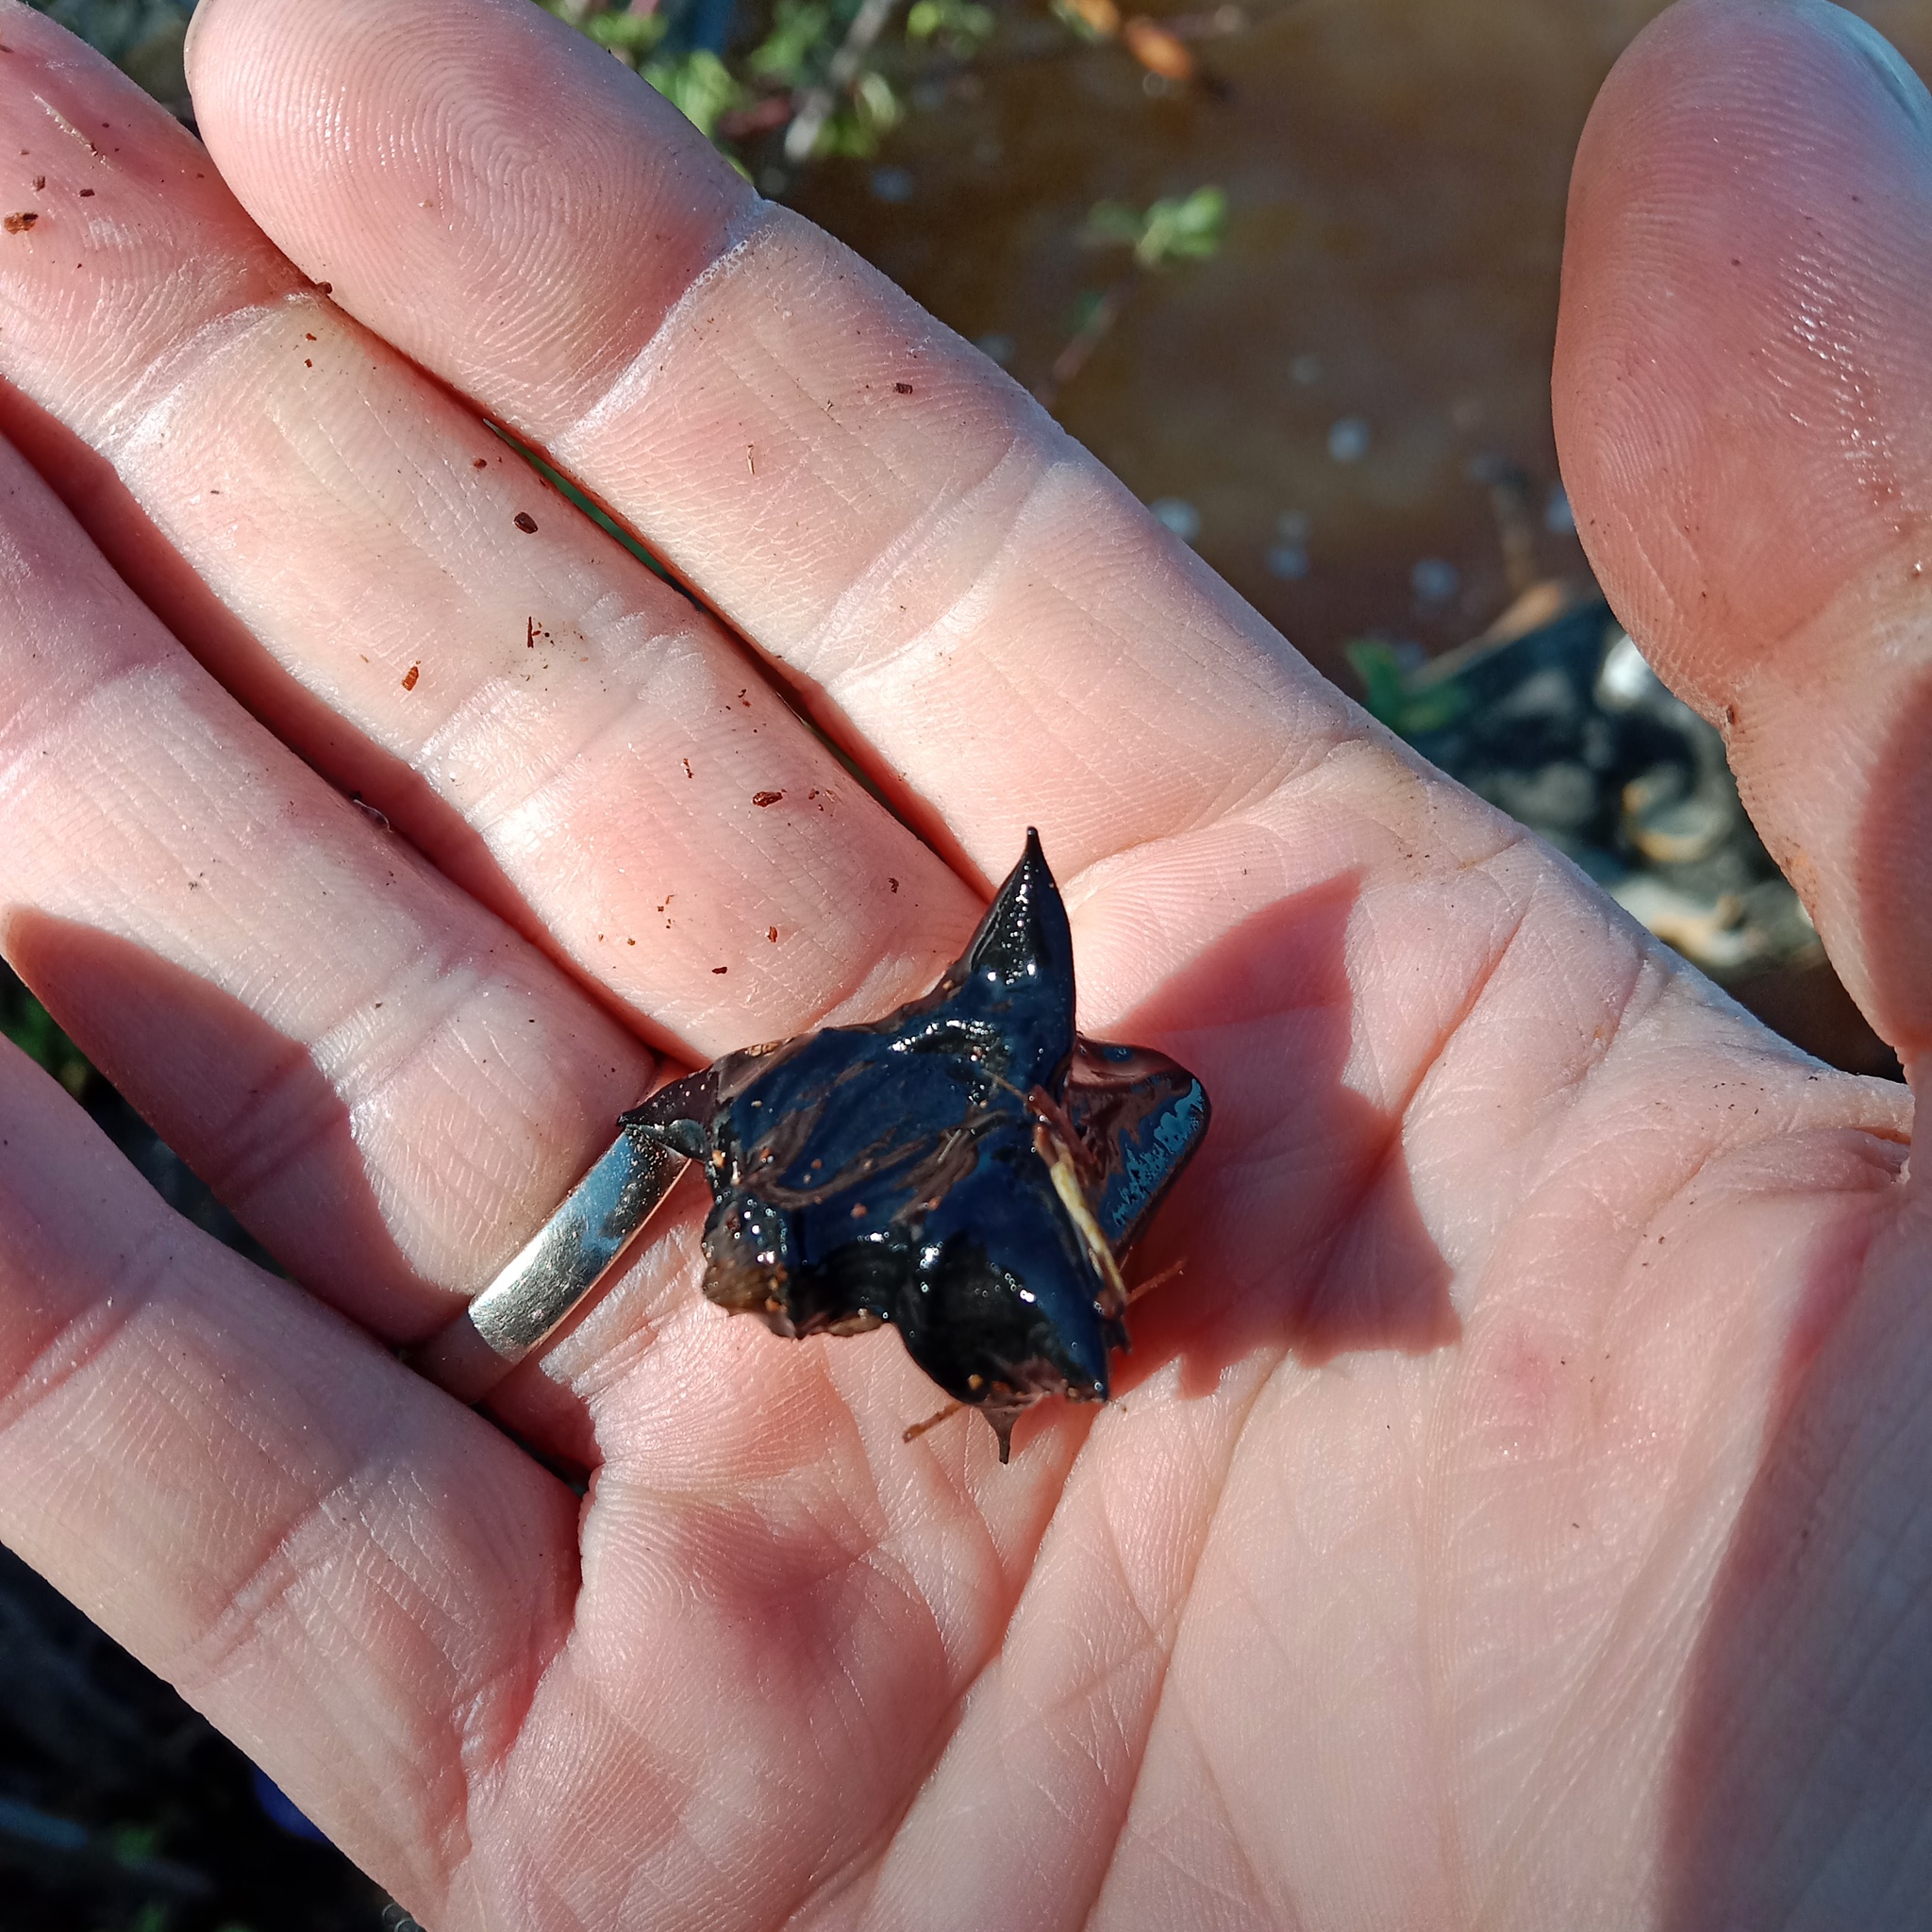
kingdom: Plantae
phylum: Tracheophyta
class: Magnoliopsida
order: Myrtales
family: Lythraceae
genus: Trapa
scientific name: Trapa natans
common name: Water chestnut
